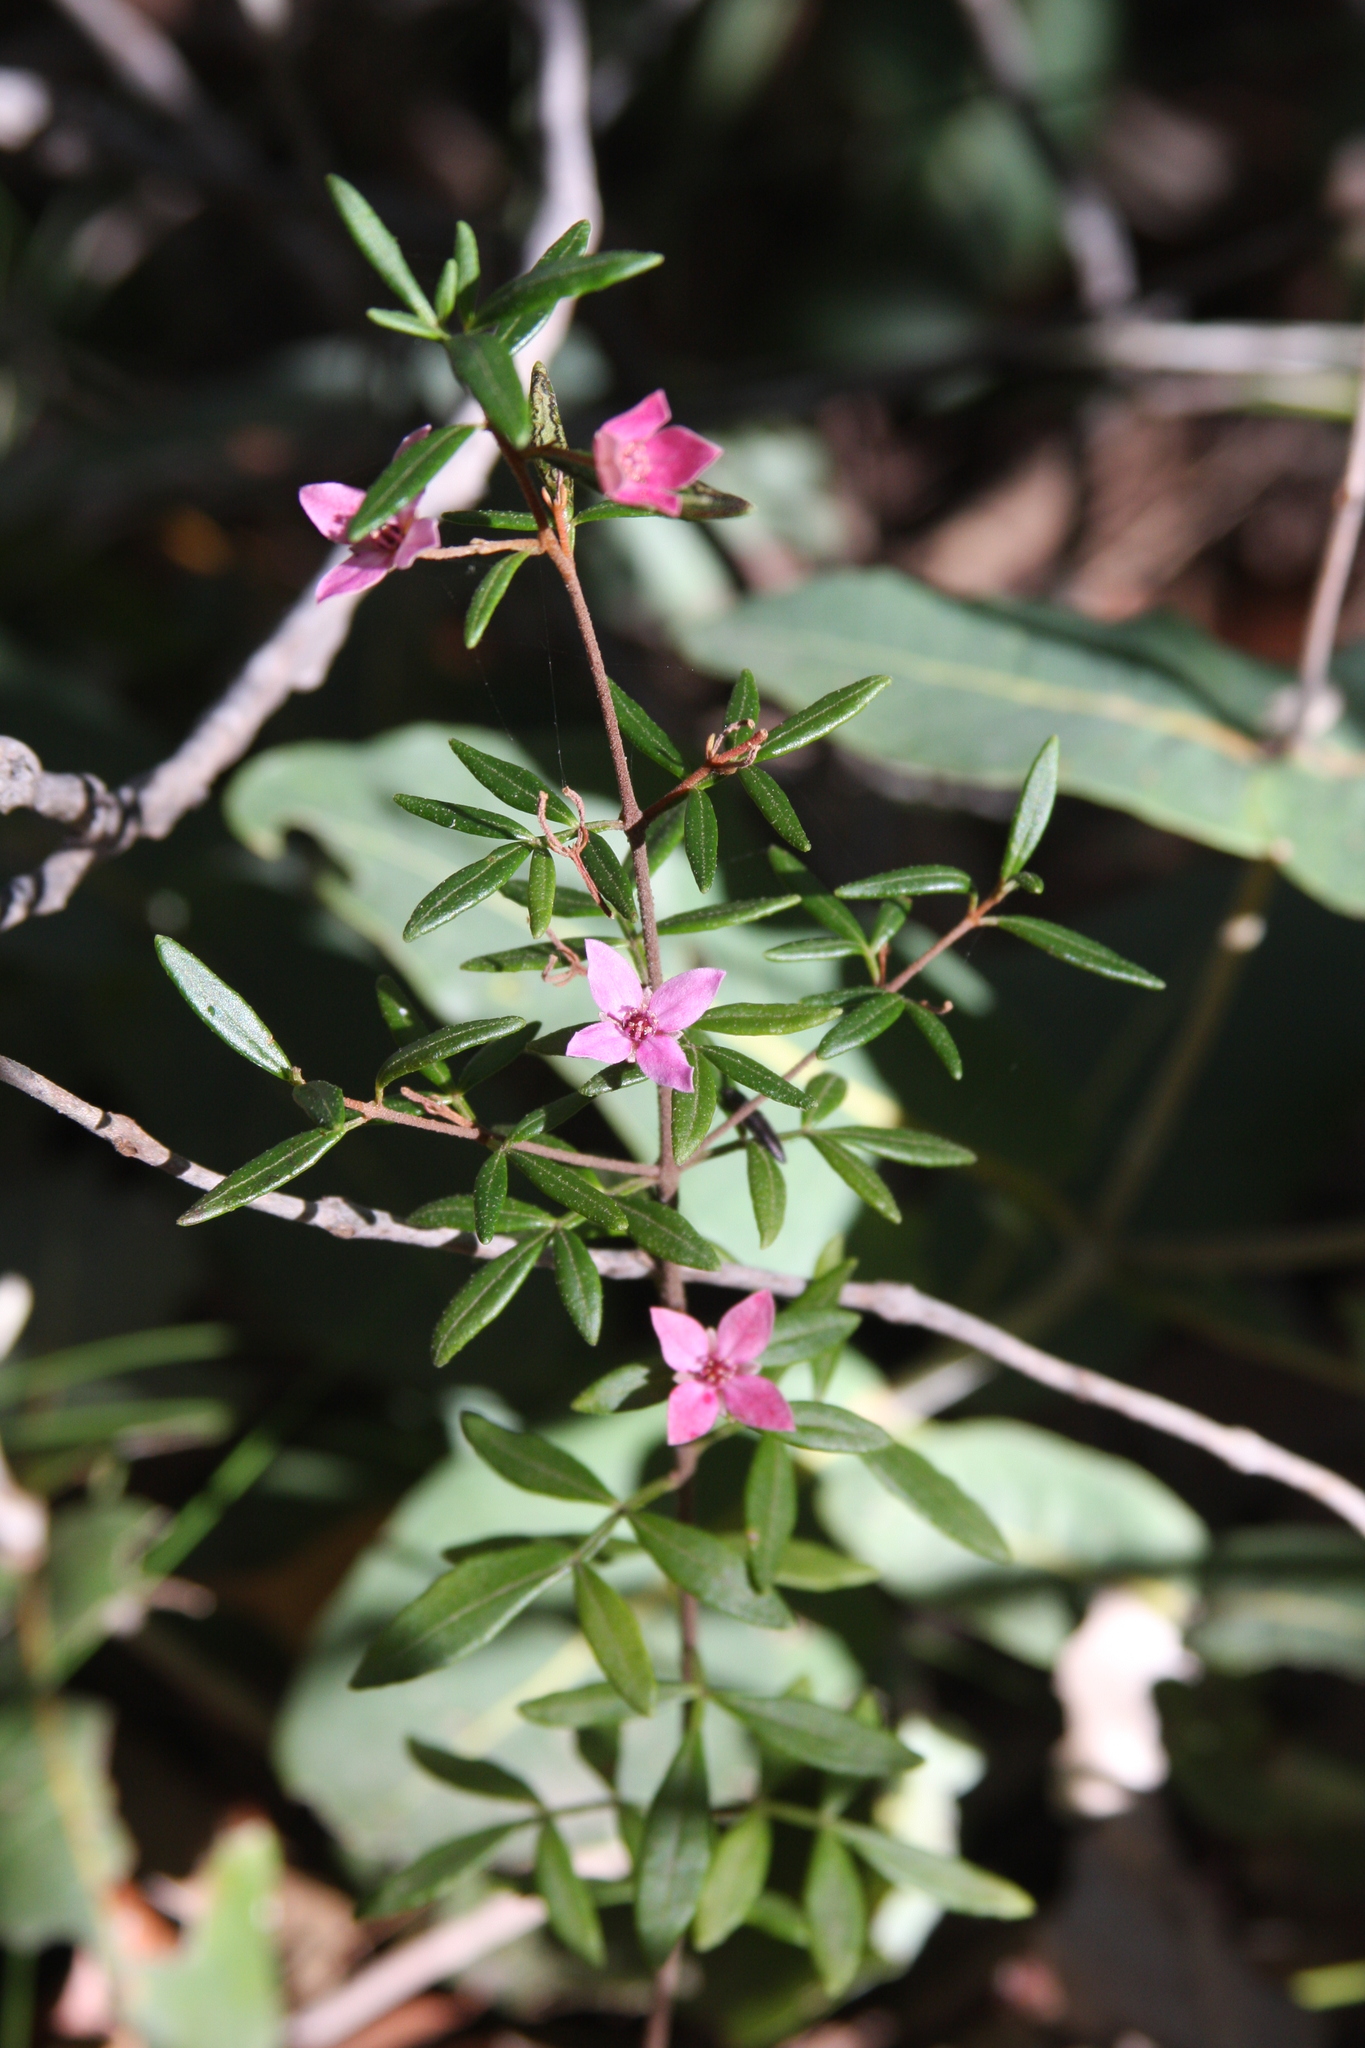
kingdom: Plantae
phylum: Tracheophyta
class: Magnoliopsida
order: Sapindales
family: Rutaceae
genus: Boronia
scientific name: Boronia ledifolia
